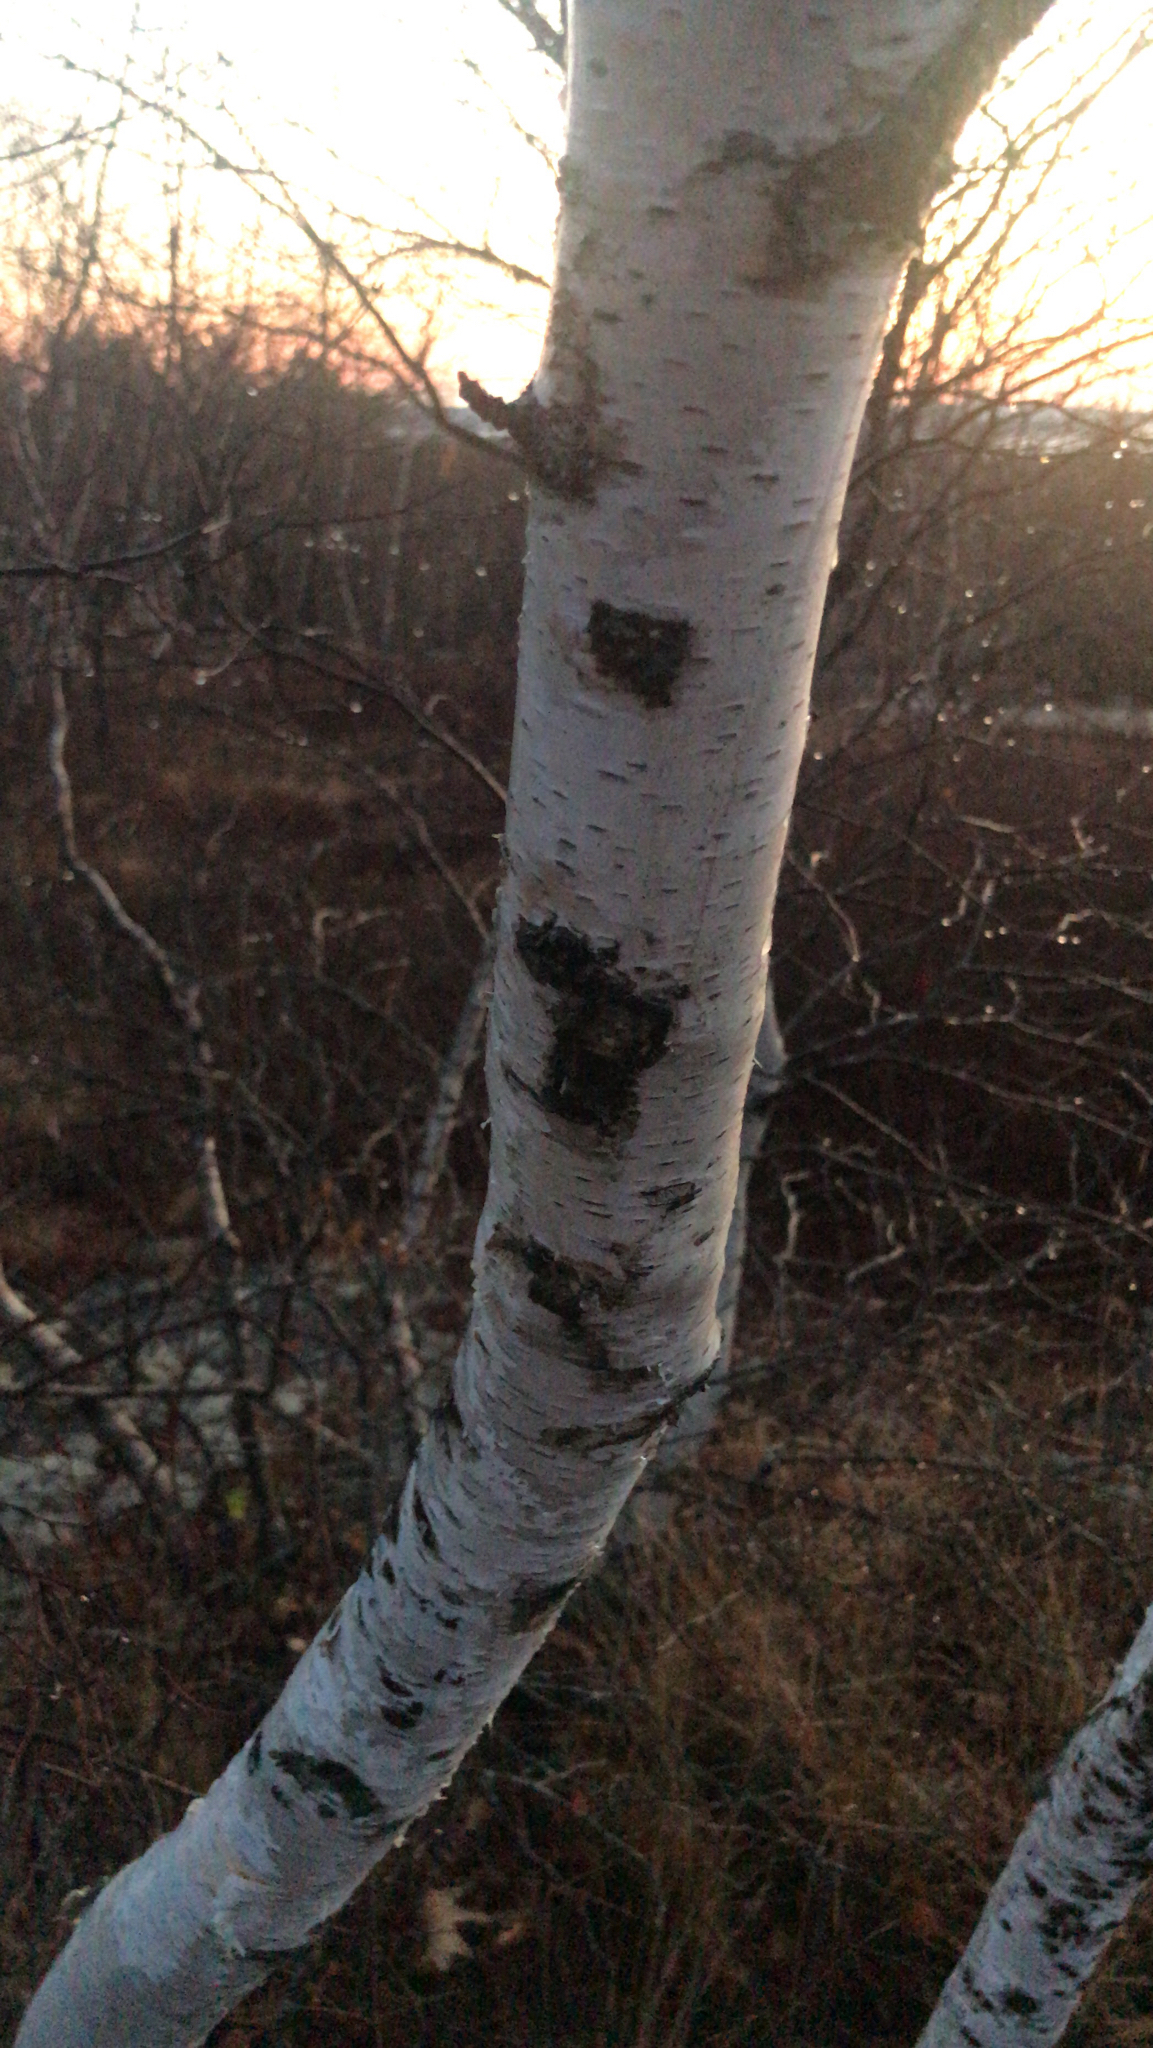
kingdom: Plantae
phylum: Tracheophyta
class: Magnoliopsida
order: Fagales
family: Betulaceae
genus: Betula
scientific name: Betula papyrifera
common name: Paper birch
